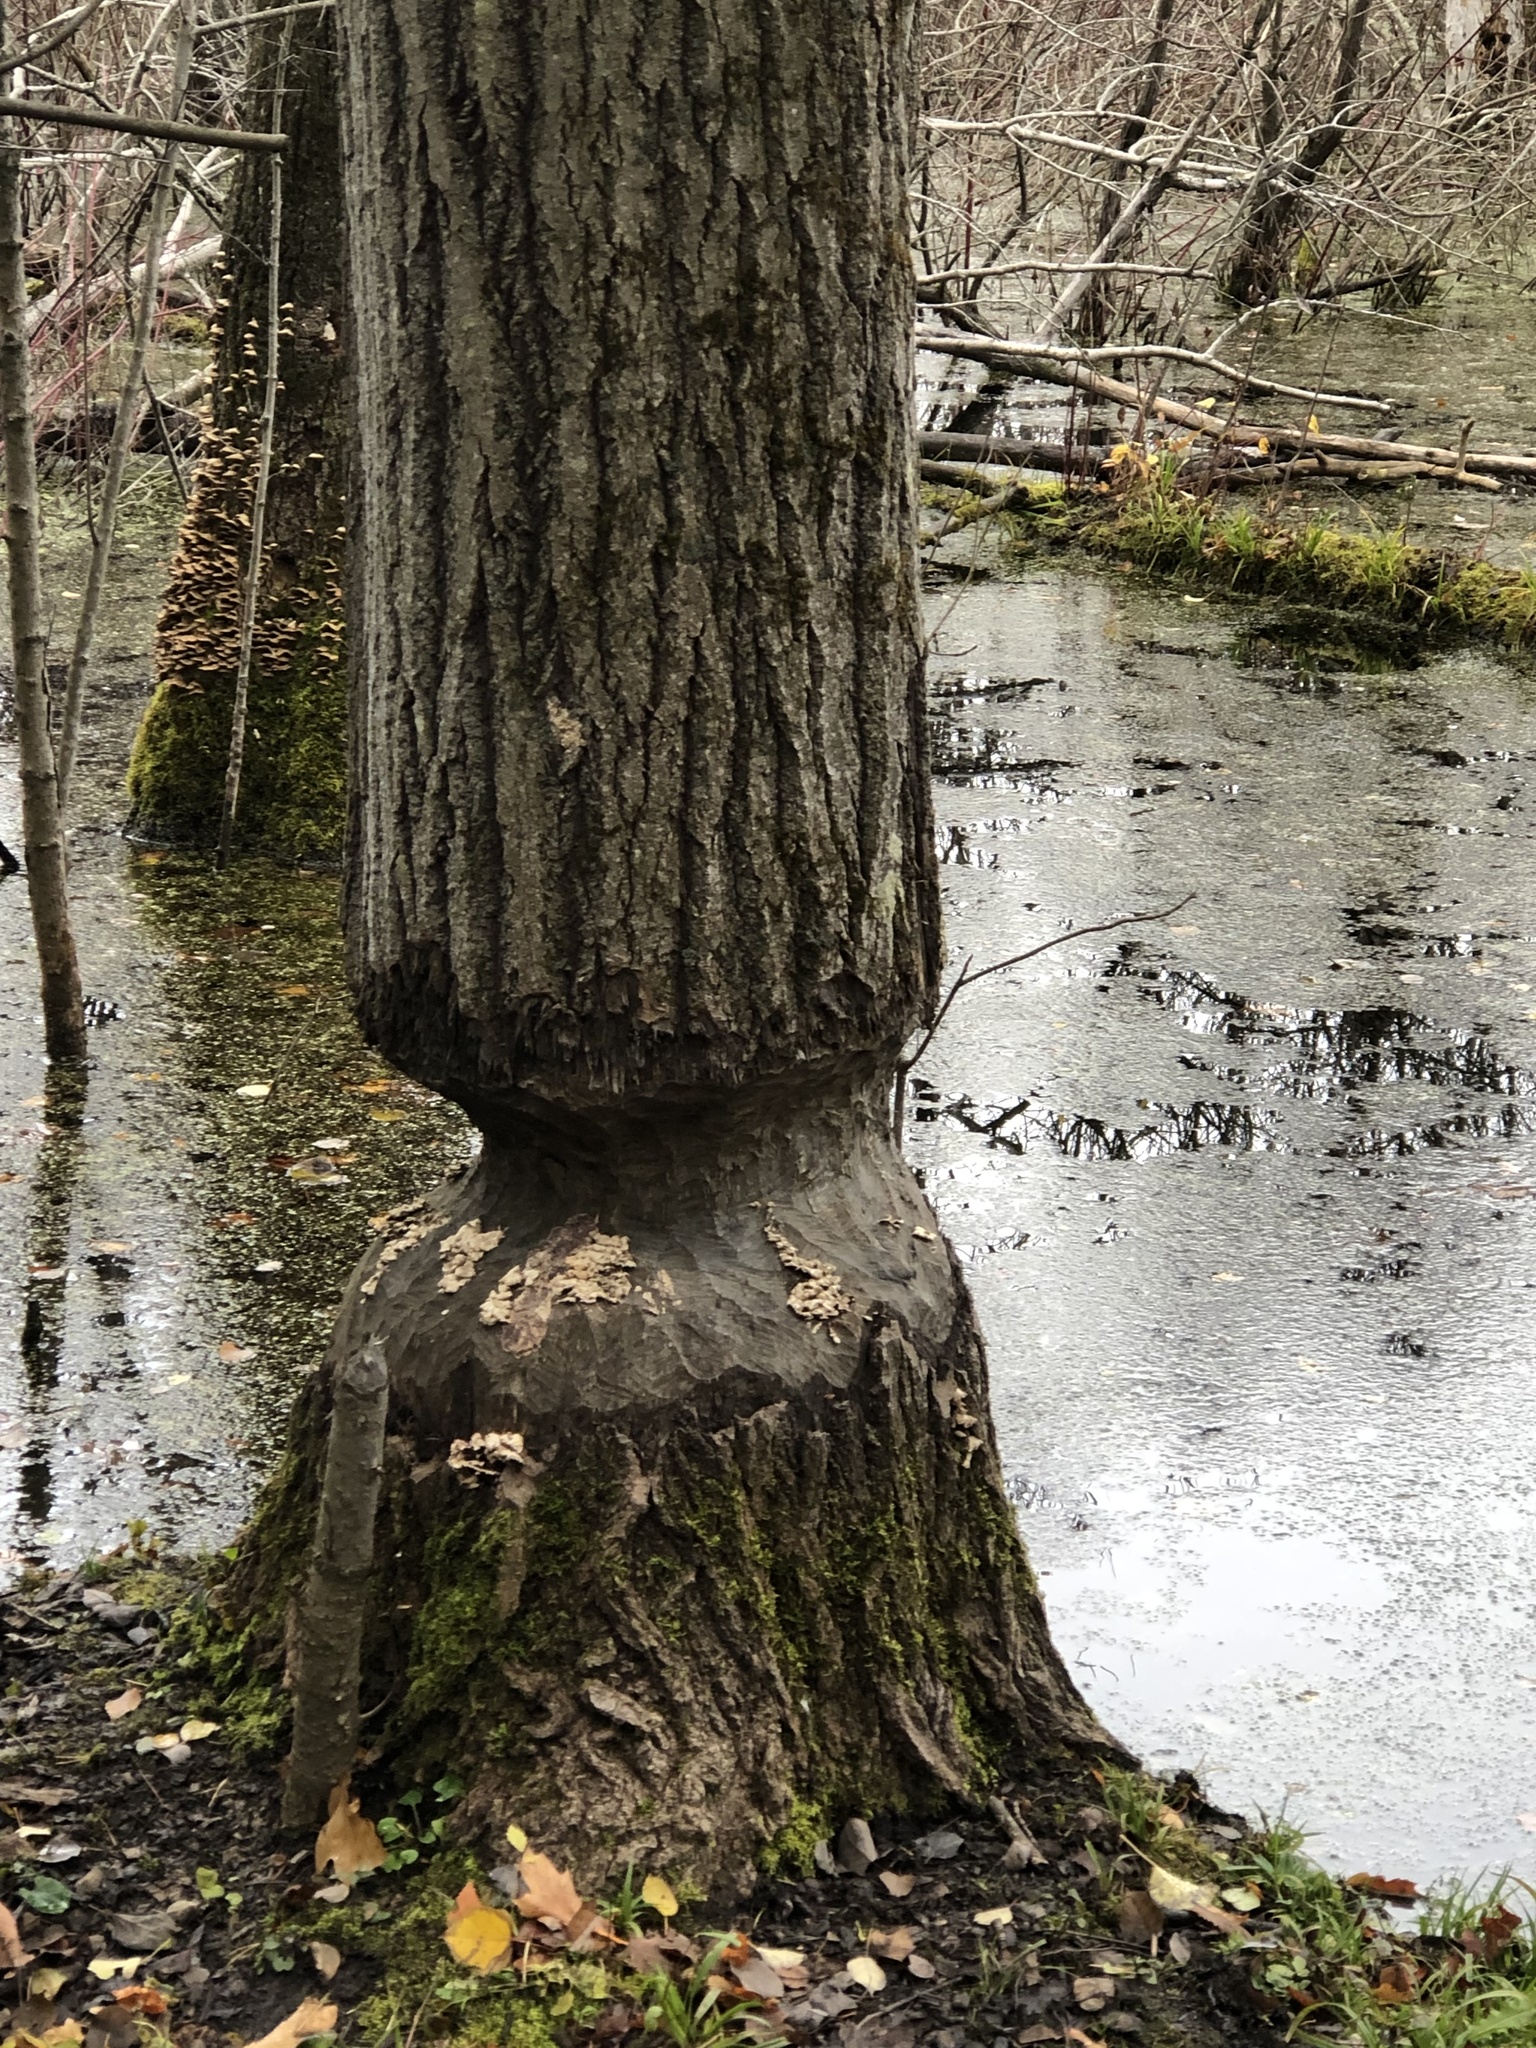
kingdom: Animalia
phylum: Chordata
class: Mammalia
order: Rodentia
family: Castoridae
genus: Castor
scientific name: Castor canadensis
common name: American beaver
